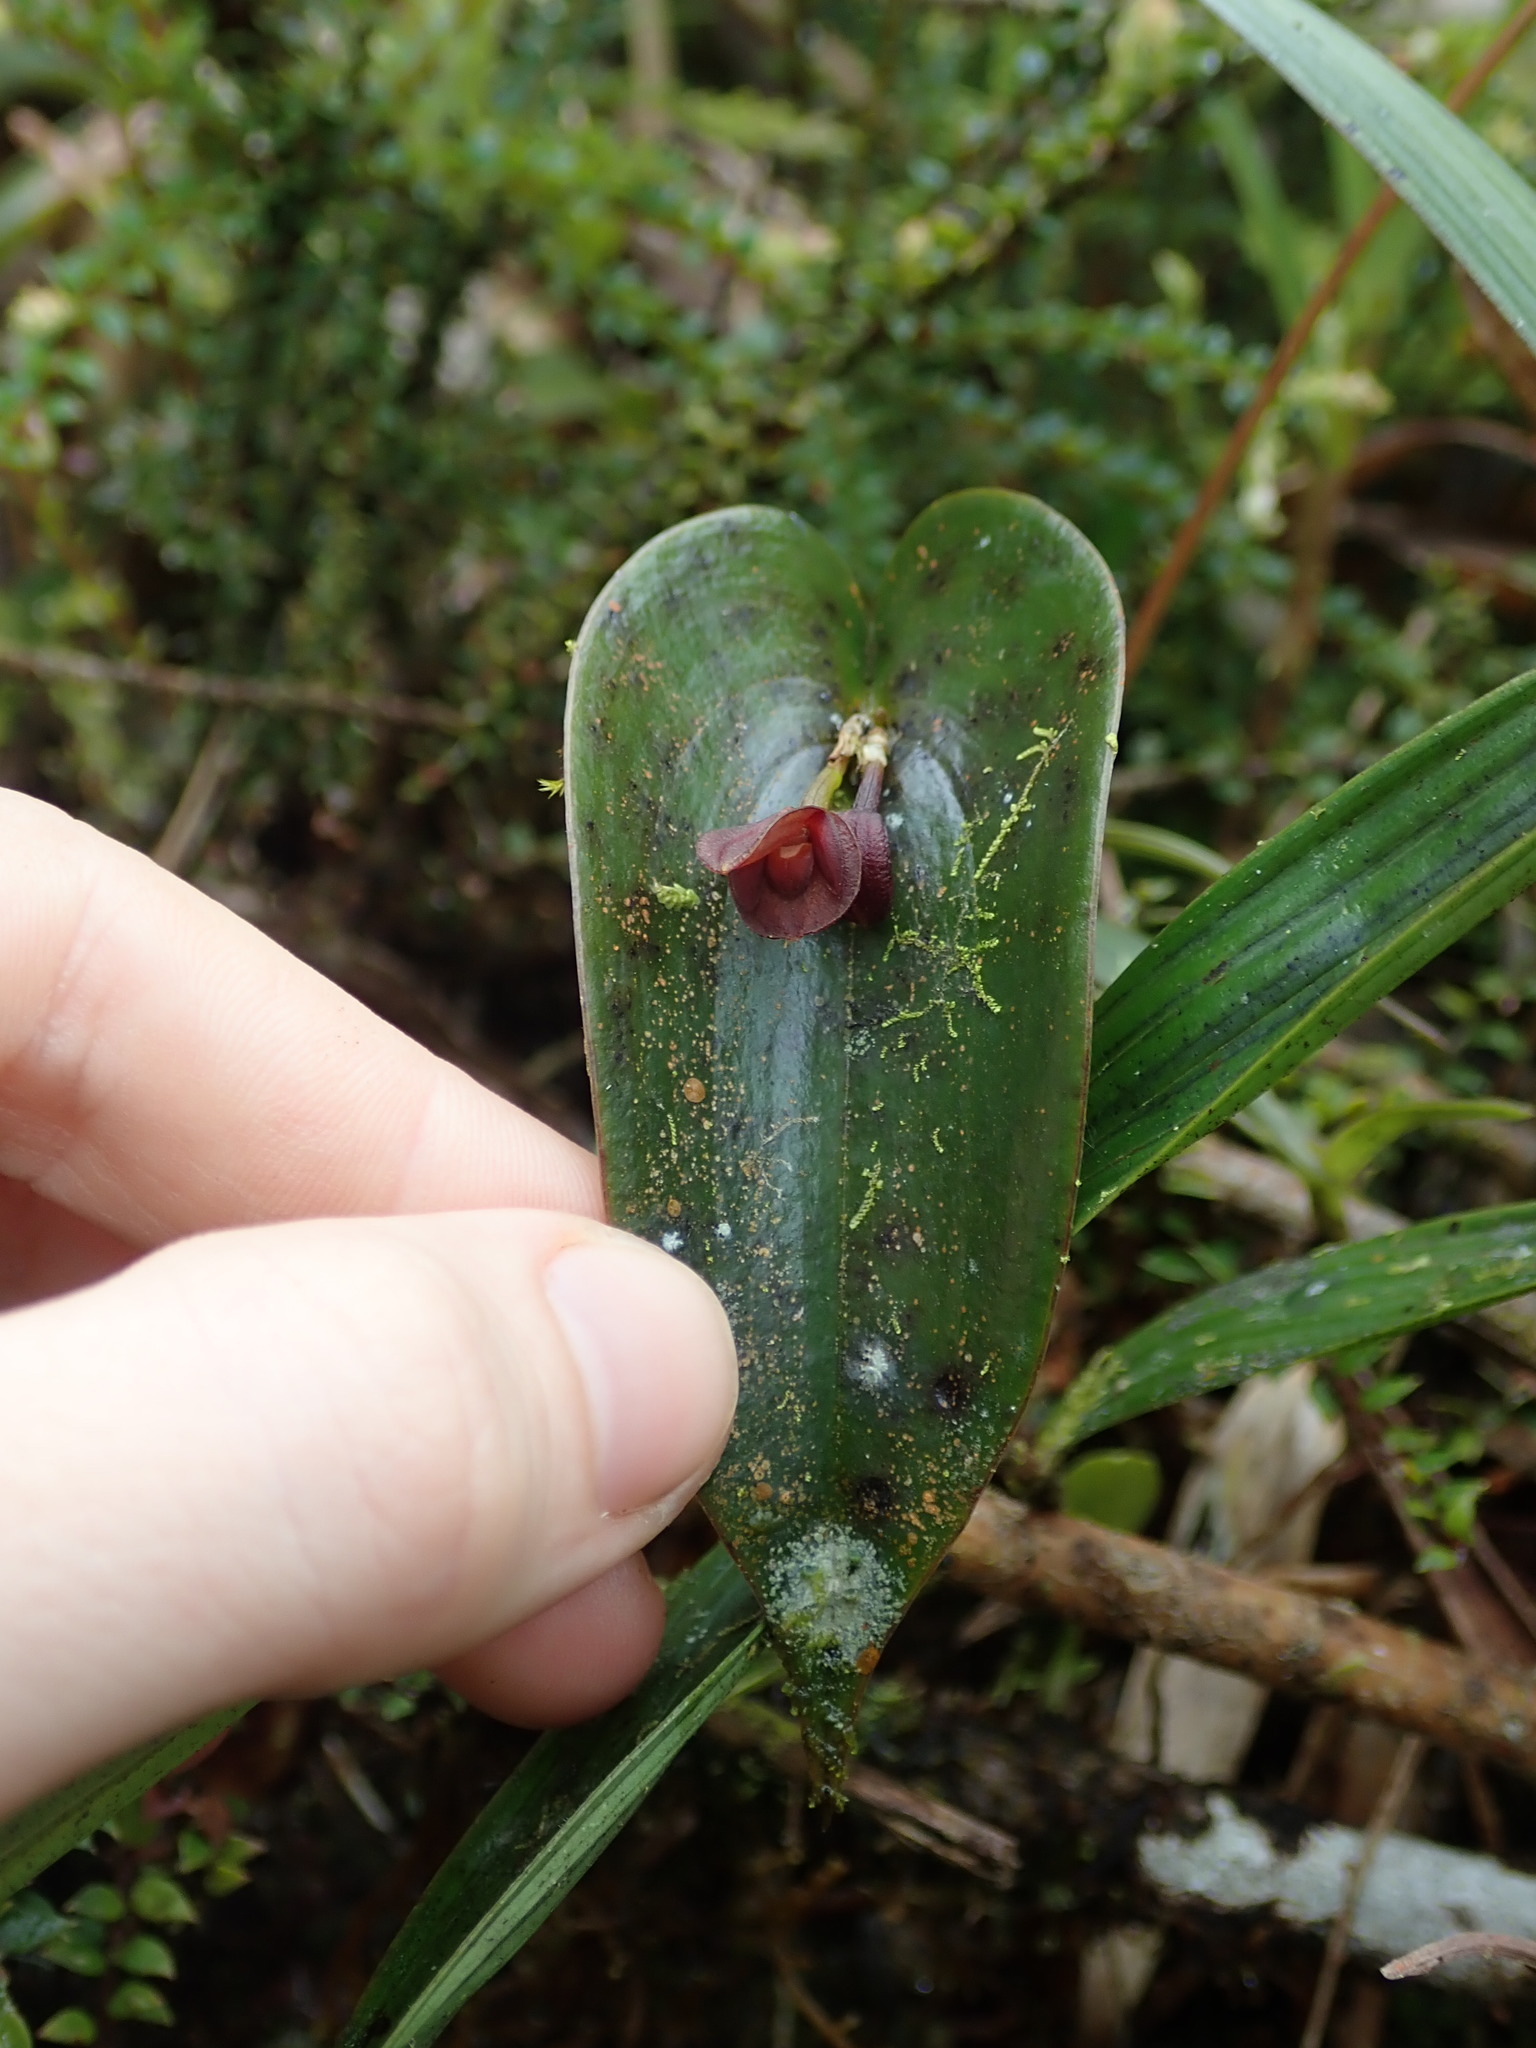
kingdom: Plantae
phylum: Tracheophyta
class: Liliopsida
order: Asparagales
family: Orchidaceae
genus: Pleurothallis
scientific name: Pleurothallis cordata
